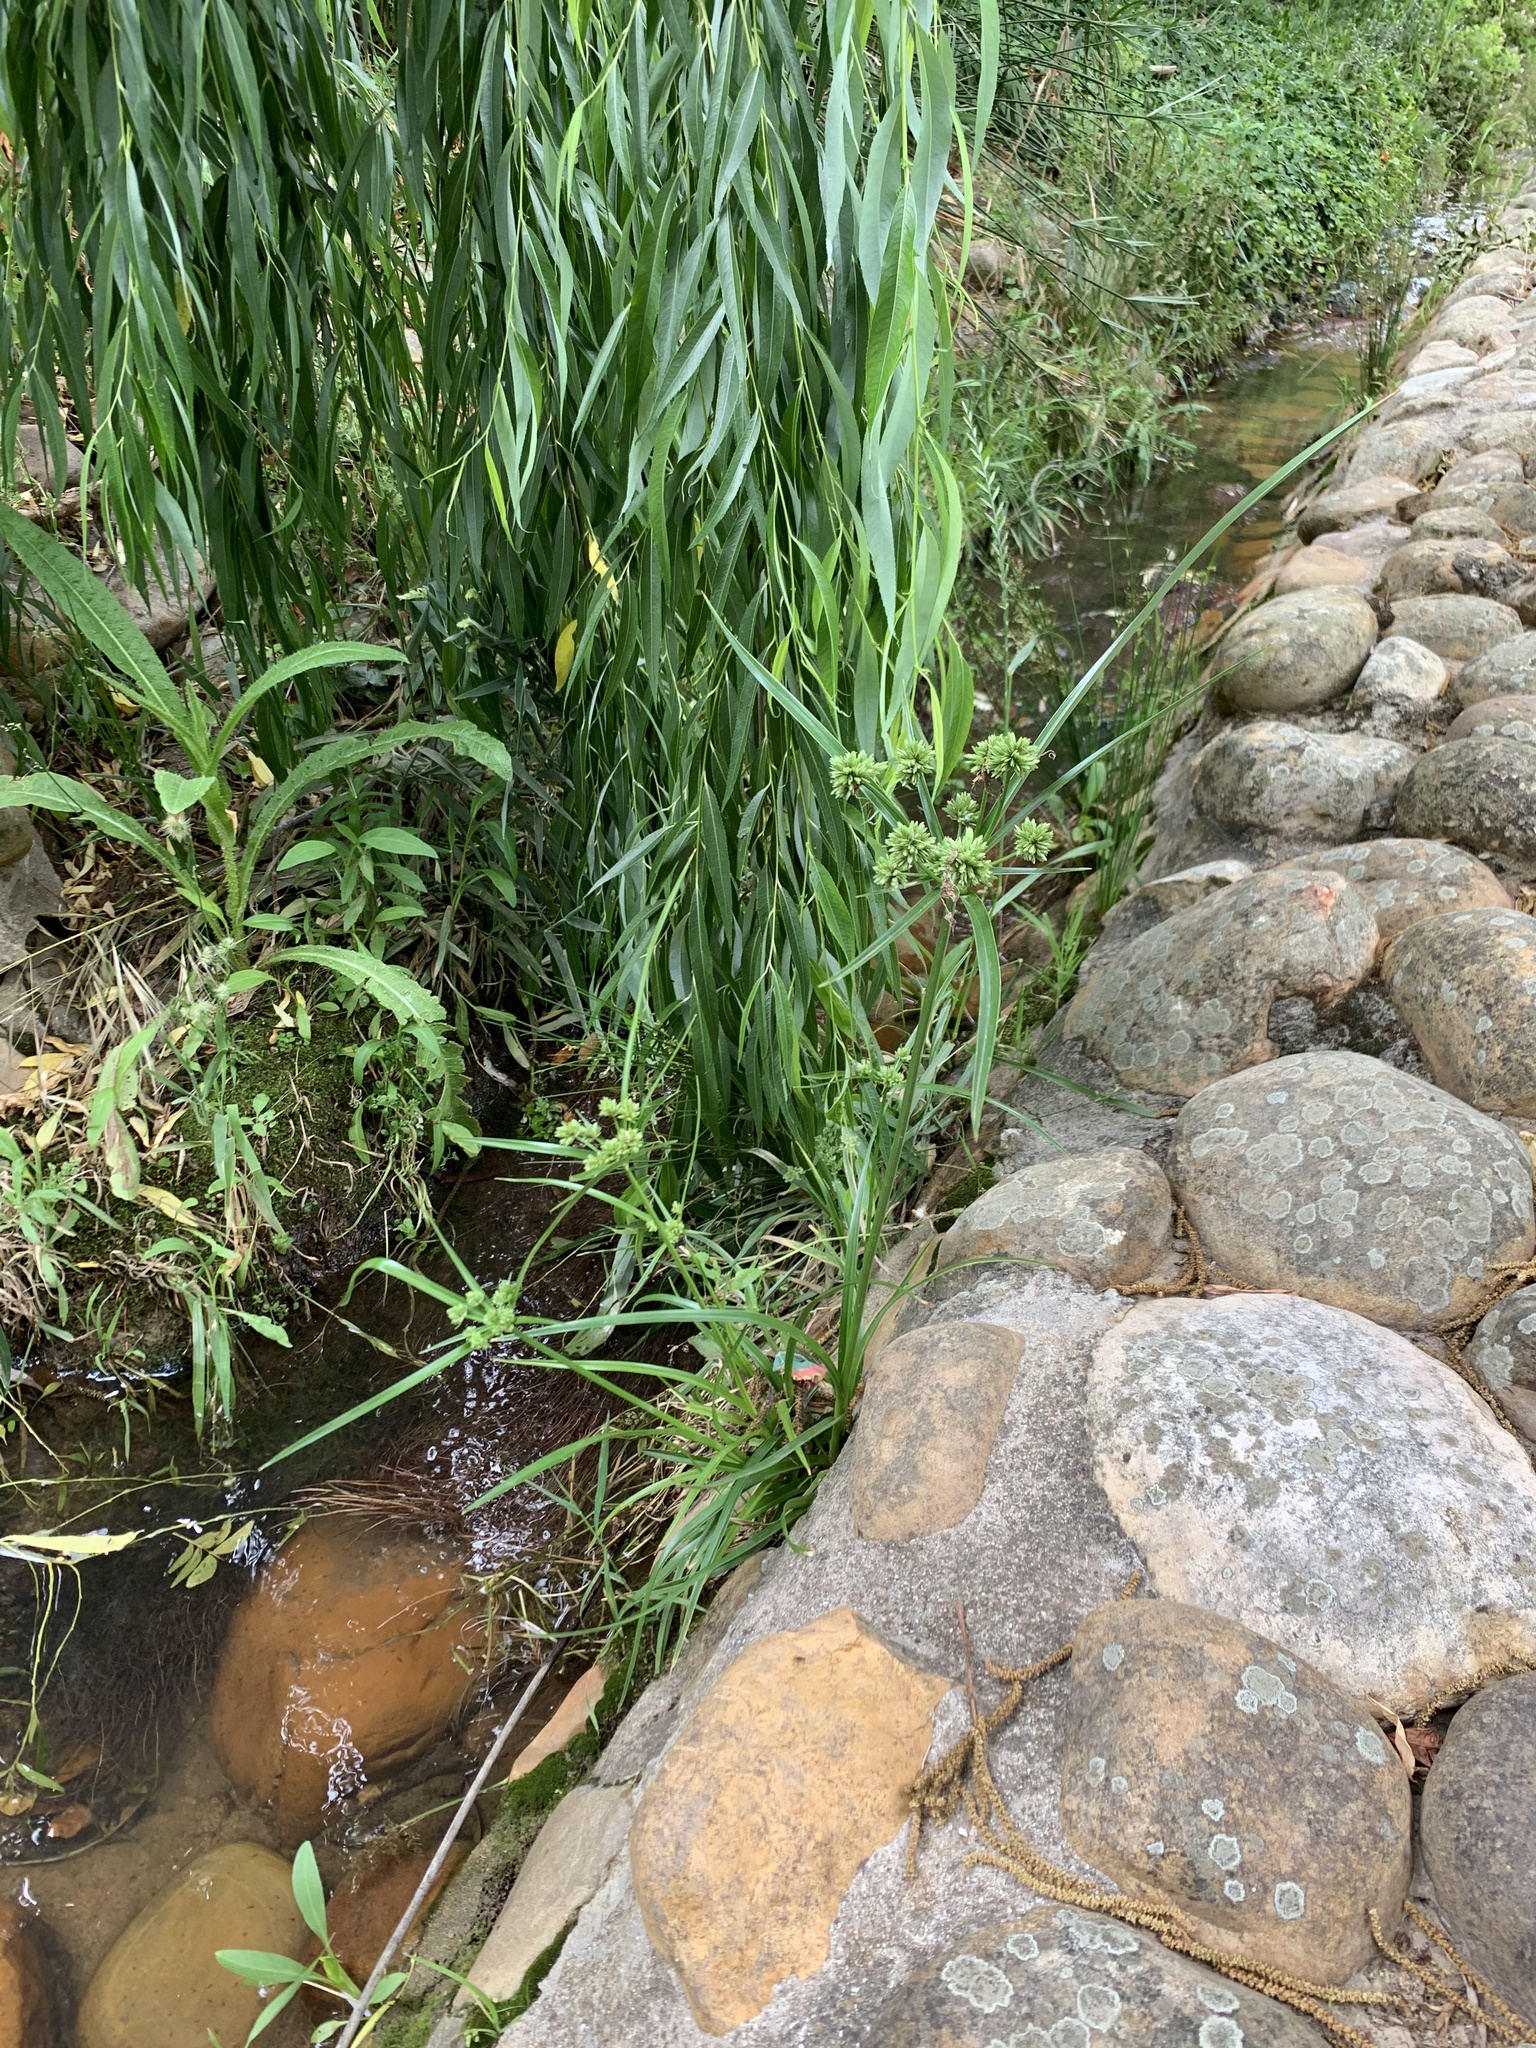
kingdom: Plantae
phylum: Tracheophyta
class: Liliopsida
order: Poales
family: Cyperaceae
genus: Cyperus
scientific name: Cyperus eragrostis
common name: Tall flatsedge
